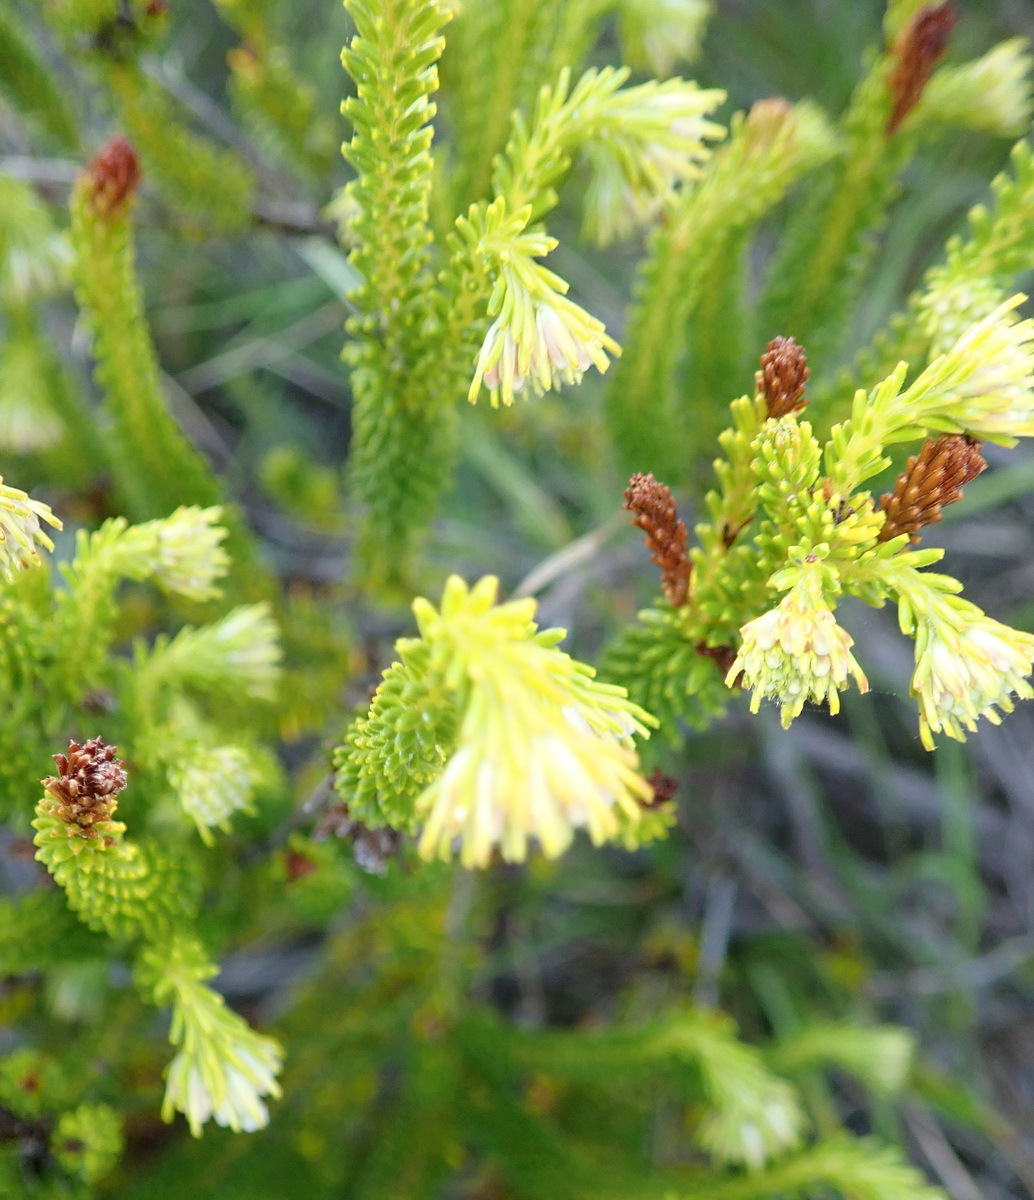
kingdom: Plantae
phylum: Tracheophyta
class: Magnoliopsida
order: Ericales
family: Ericaceae
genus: Erica
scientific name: Erica bruniifolia
